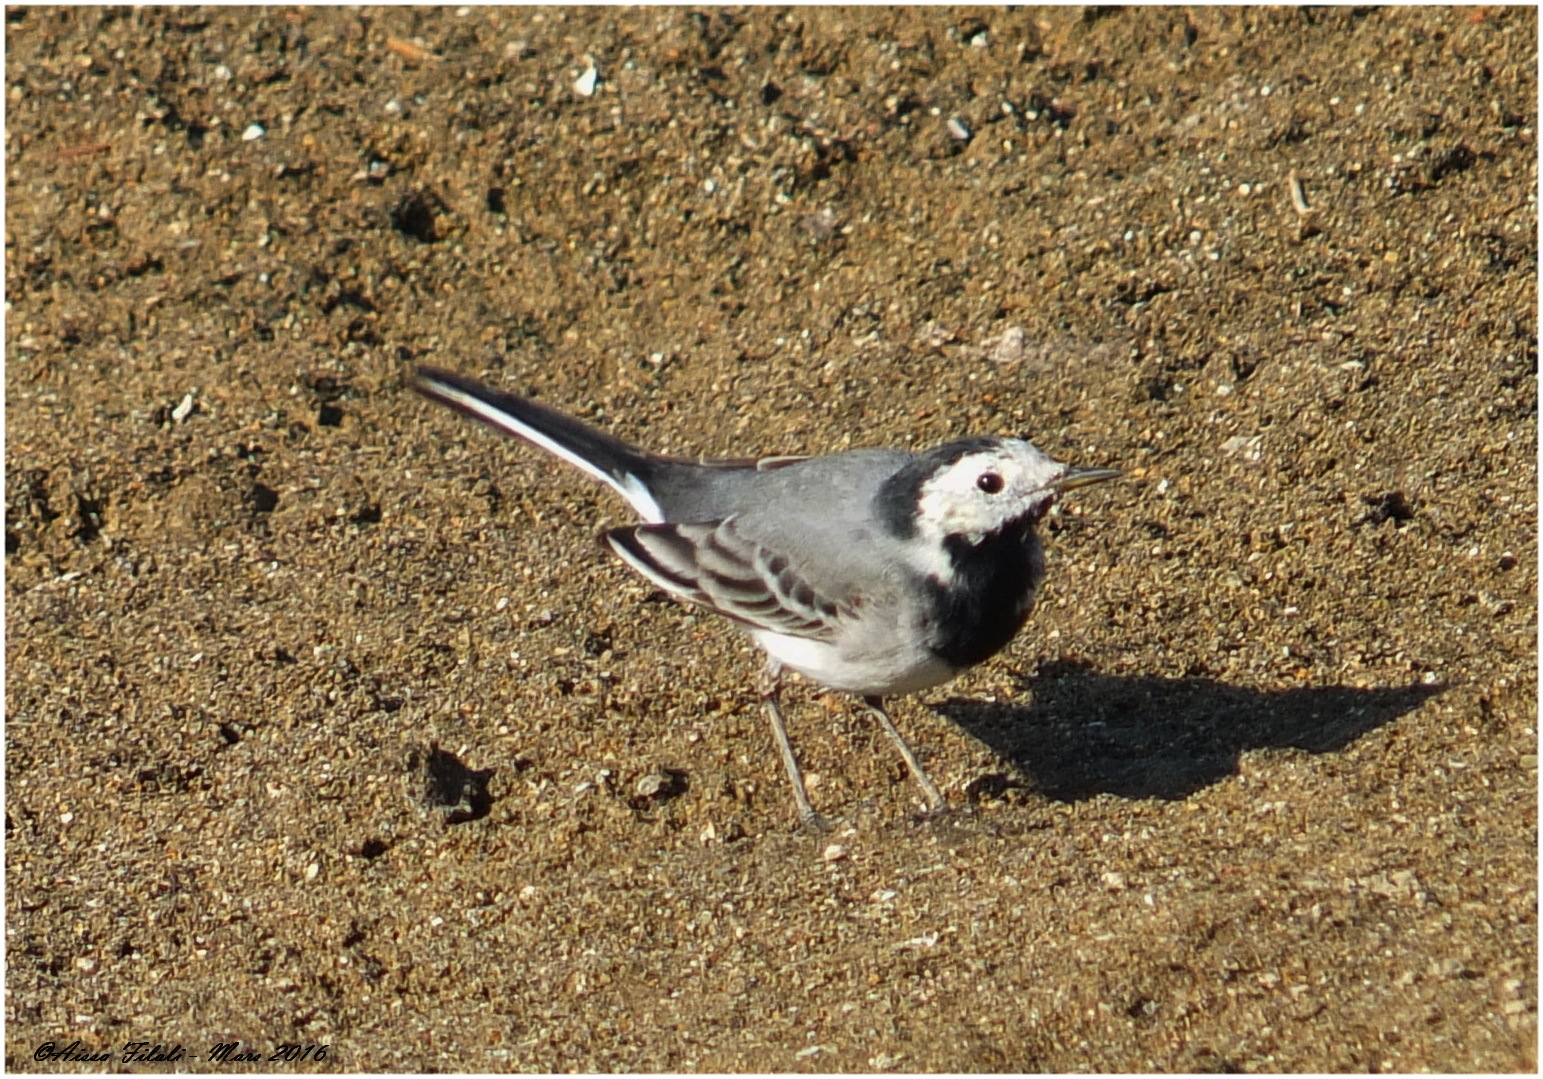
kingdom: Animalia
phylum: Chordata
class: Aves
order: Passeriformes
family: Motacillidae
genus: Motacilla
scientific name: Motacilla alba
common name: White wagtail
